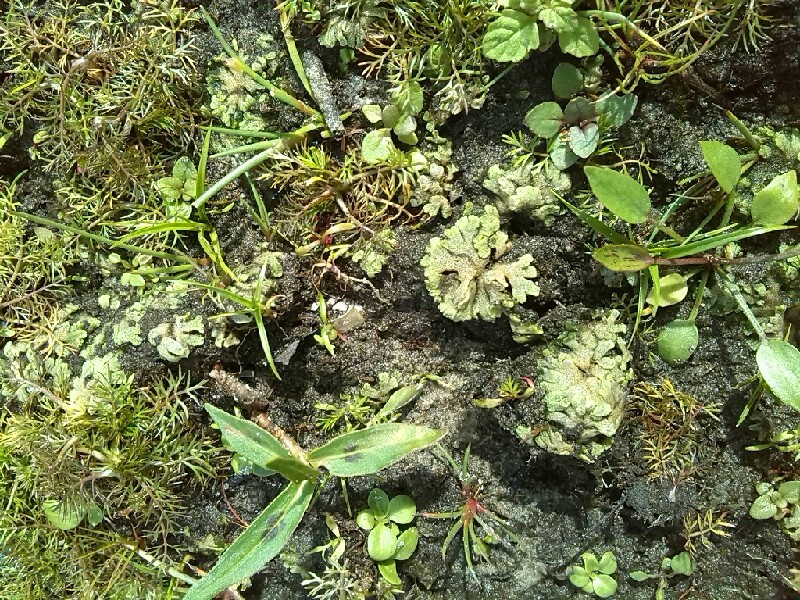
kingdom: Plantae
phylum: Marchantiophyta
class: Marchantiopsida
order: Marchantiales
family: Ricciaceae
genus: Riccia
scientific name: Riccia cavernosa
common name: Cavernous crystalwort
